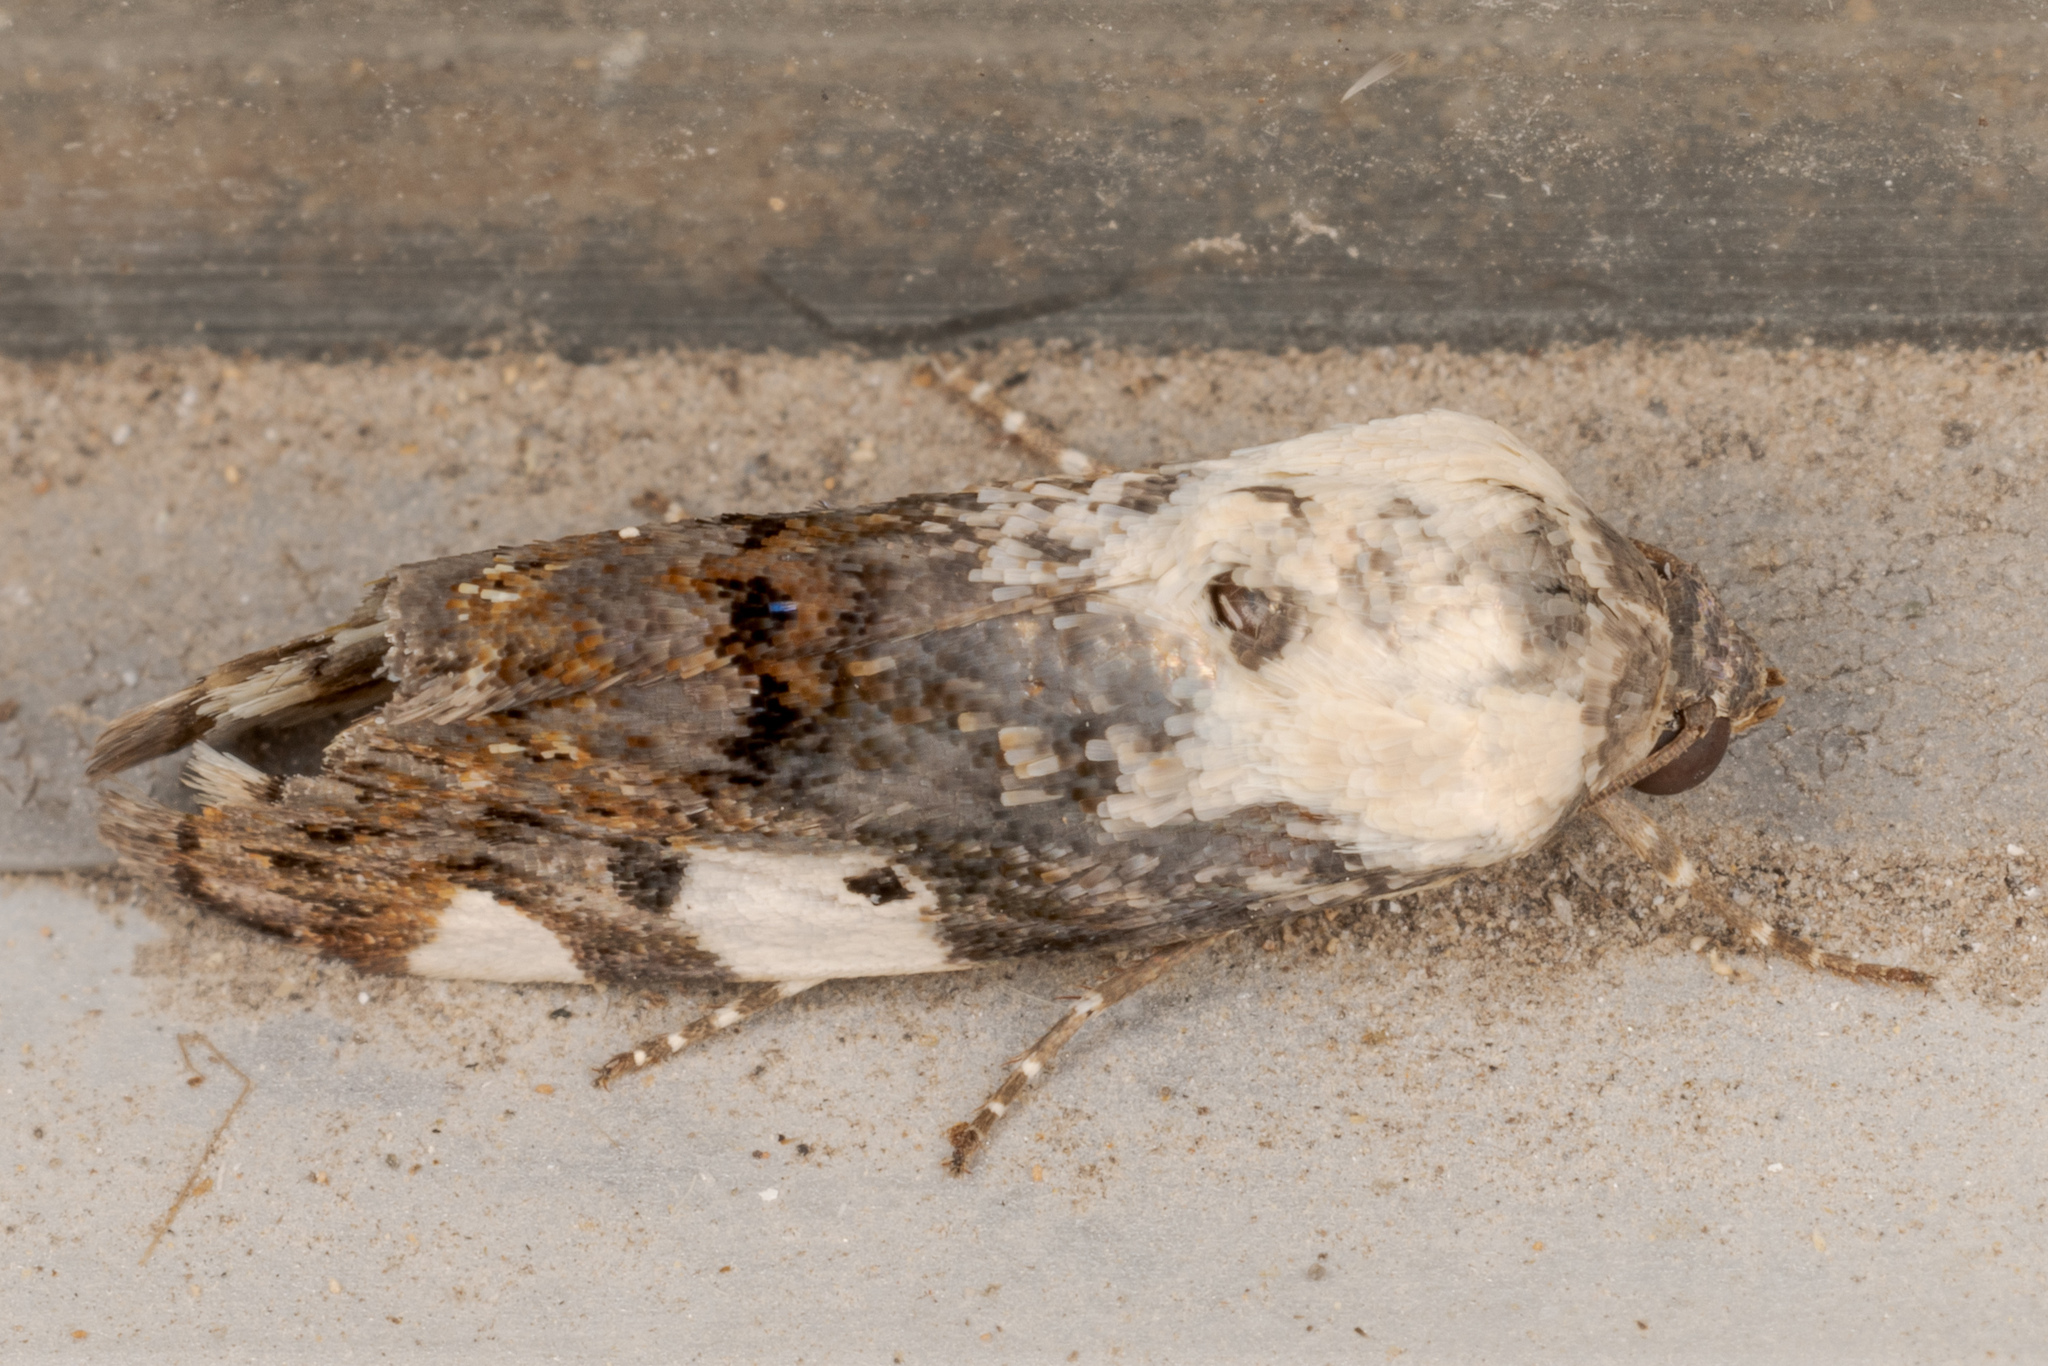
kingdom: Animalia
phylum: Arthropoda
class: Insecta
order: Lepidoptera
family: Noctuidae
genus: Acontia
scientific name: Acontia aprica
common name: Nun
